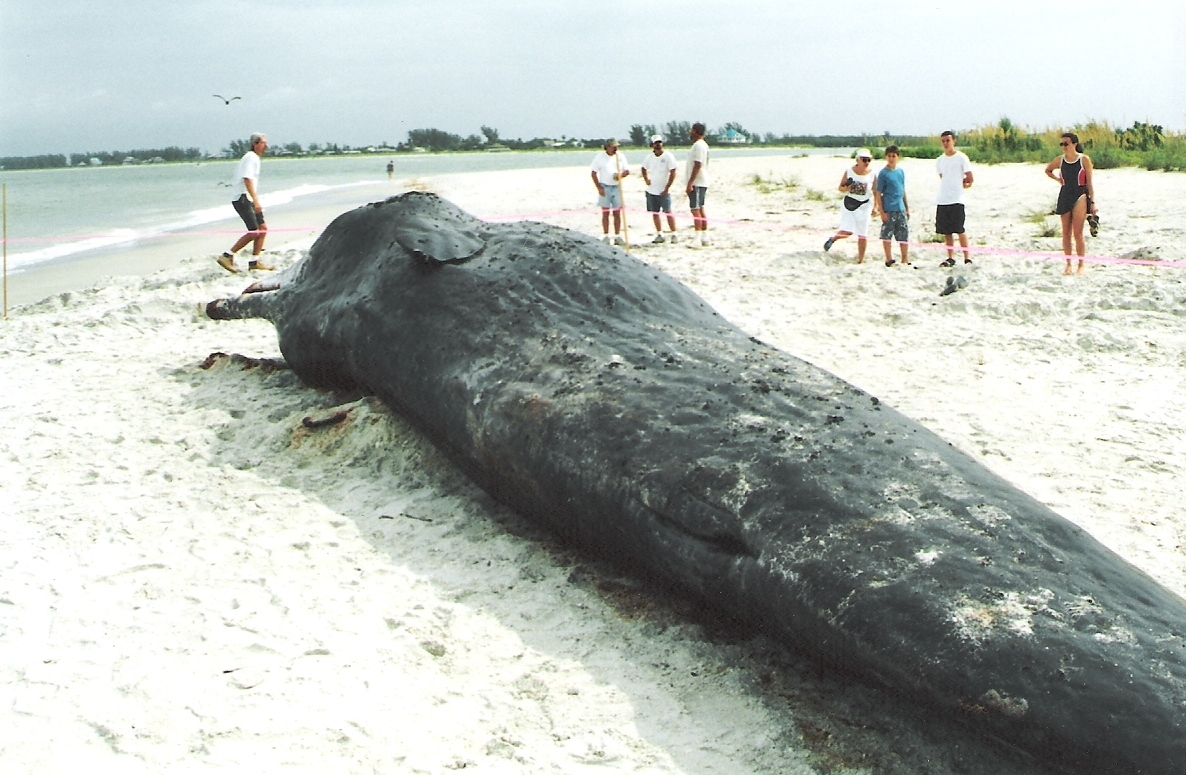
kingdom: Animalia
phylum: Chordata
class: Mammalia
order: Cetacea
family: Physeteridae
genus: Physeter
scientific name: Physeter macrocephalus
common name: Sperm whale
